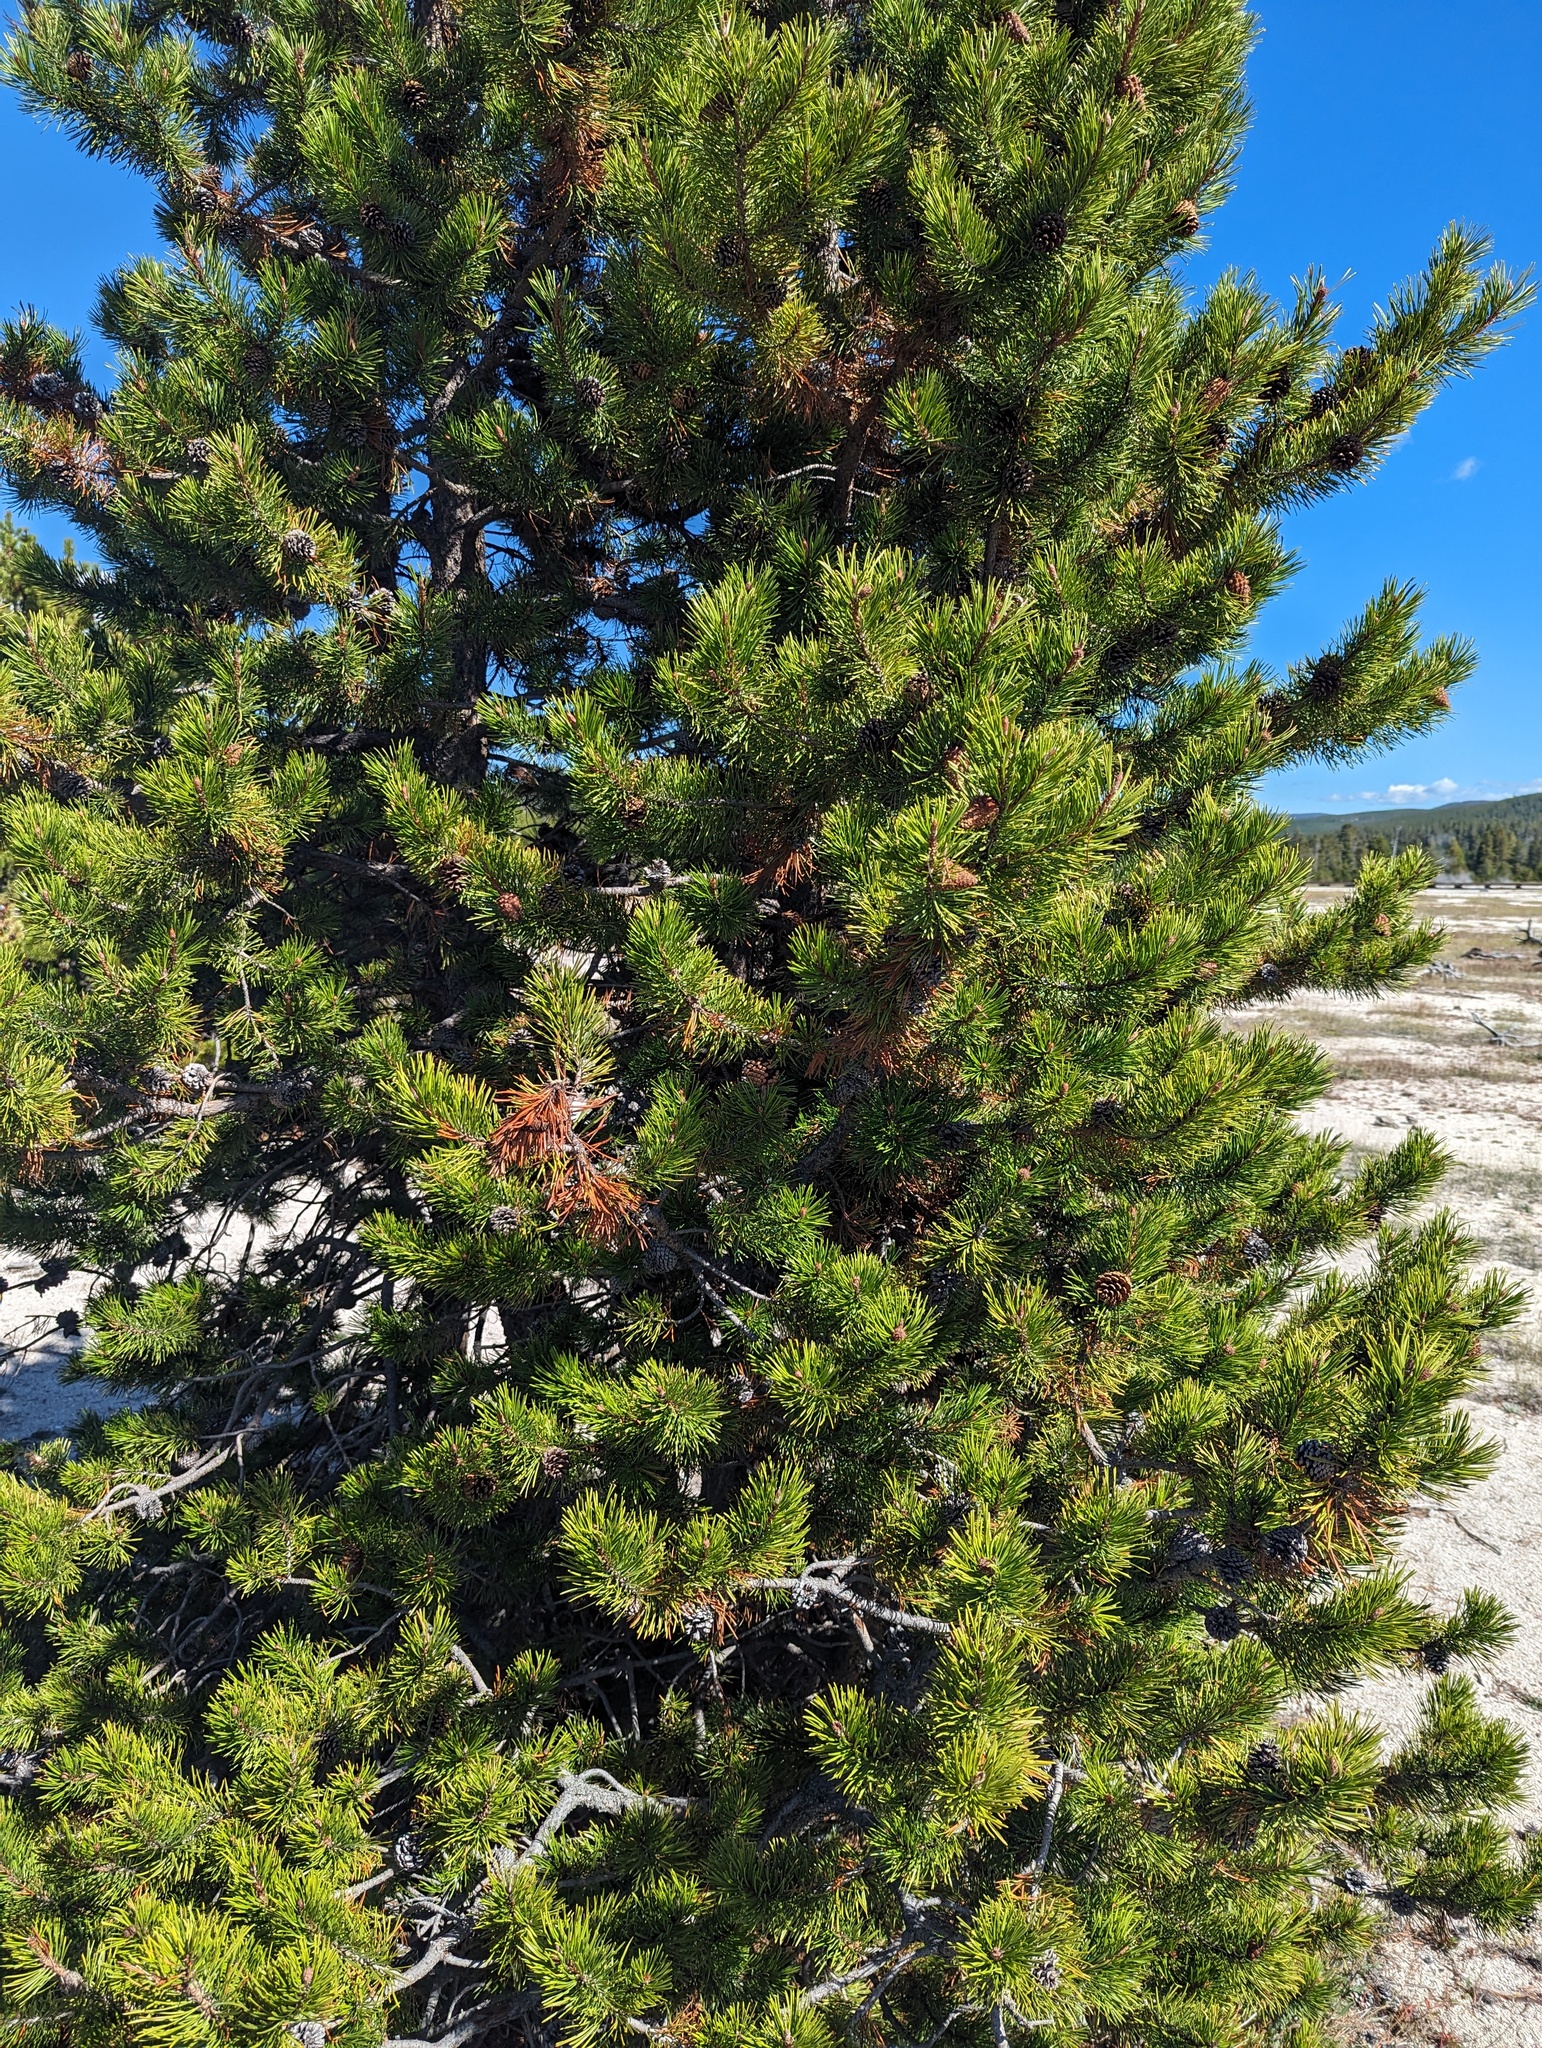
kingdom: Plantae
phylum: Tracheophyta
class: Pinopsida
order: Pinales
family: Pinaceae
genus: Pinus
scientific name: Pinus contorta
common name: Lodgepole pine
